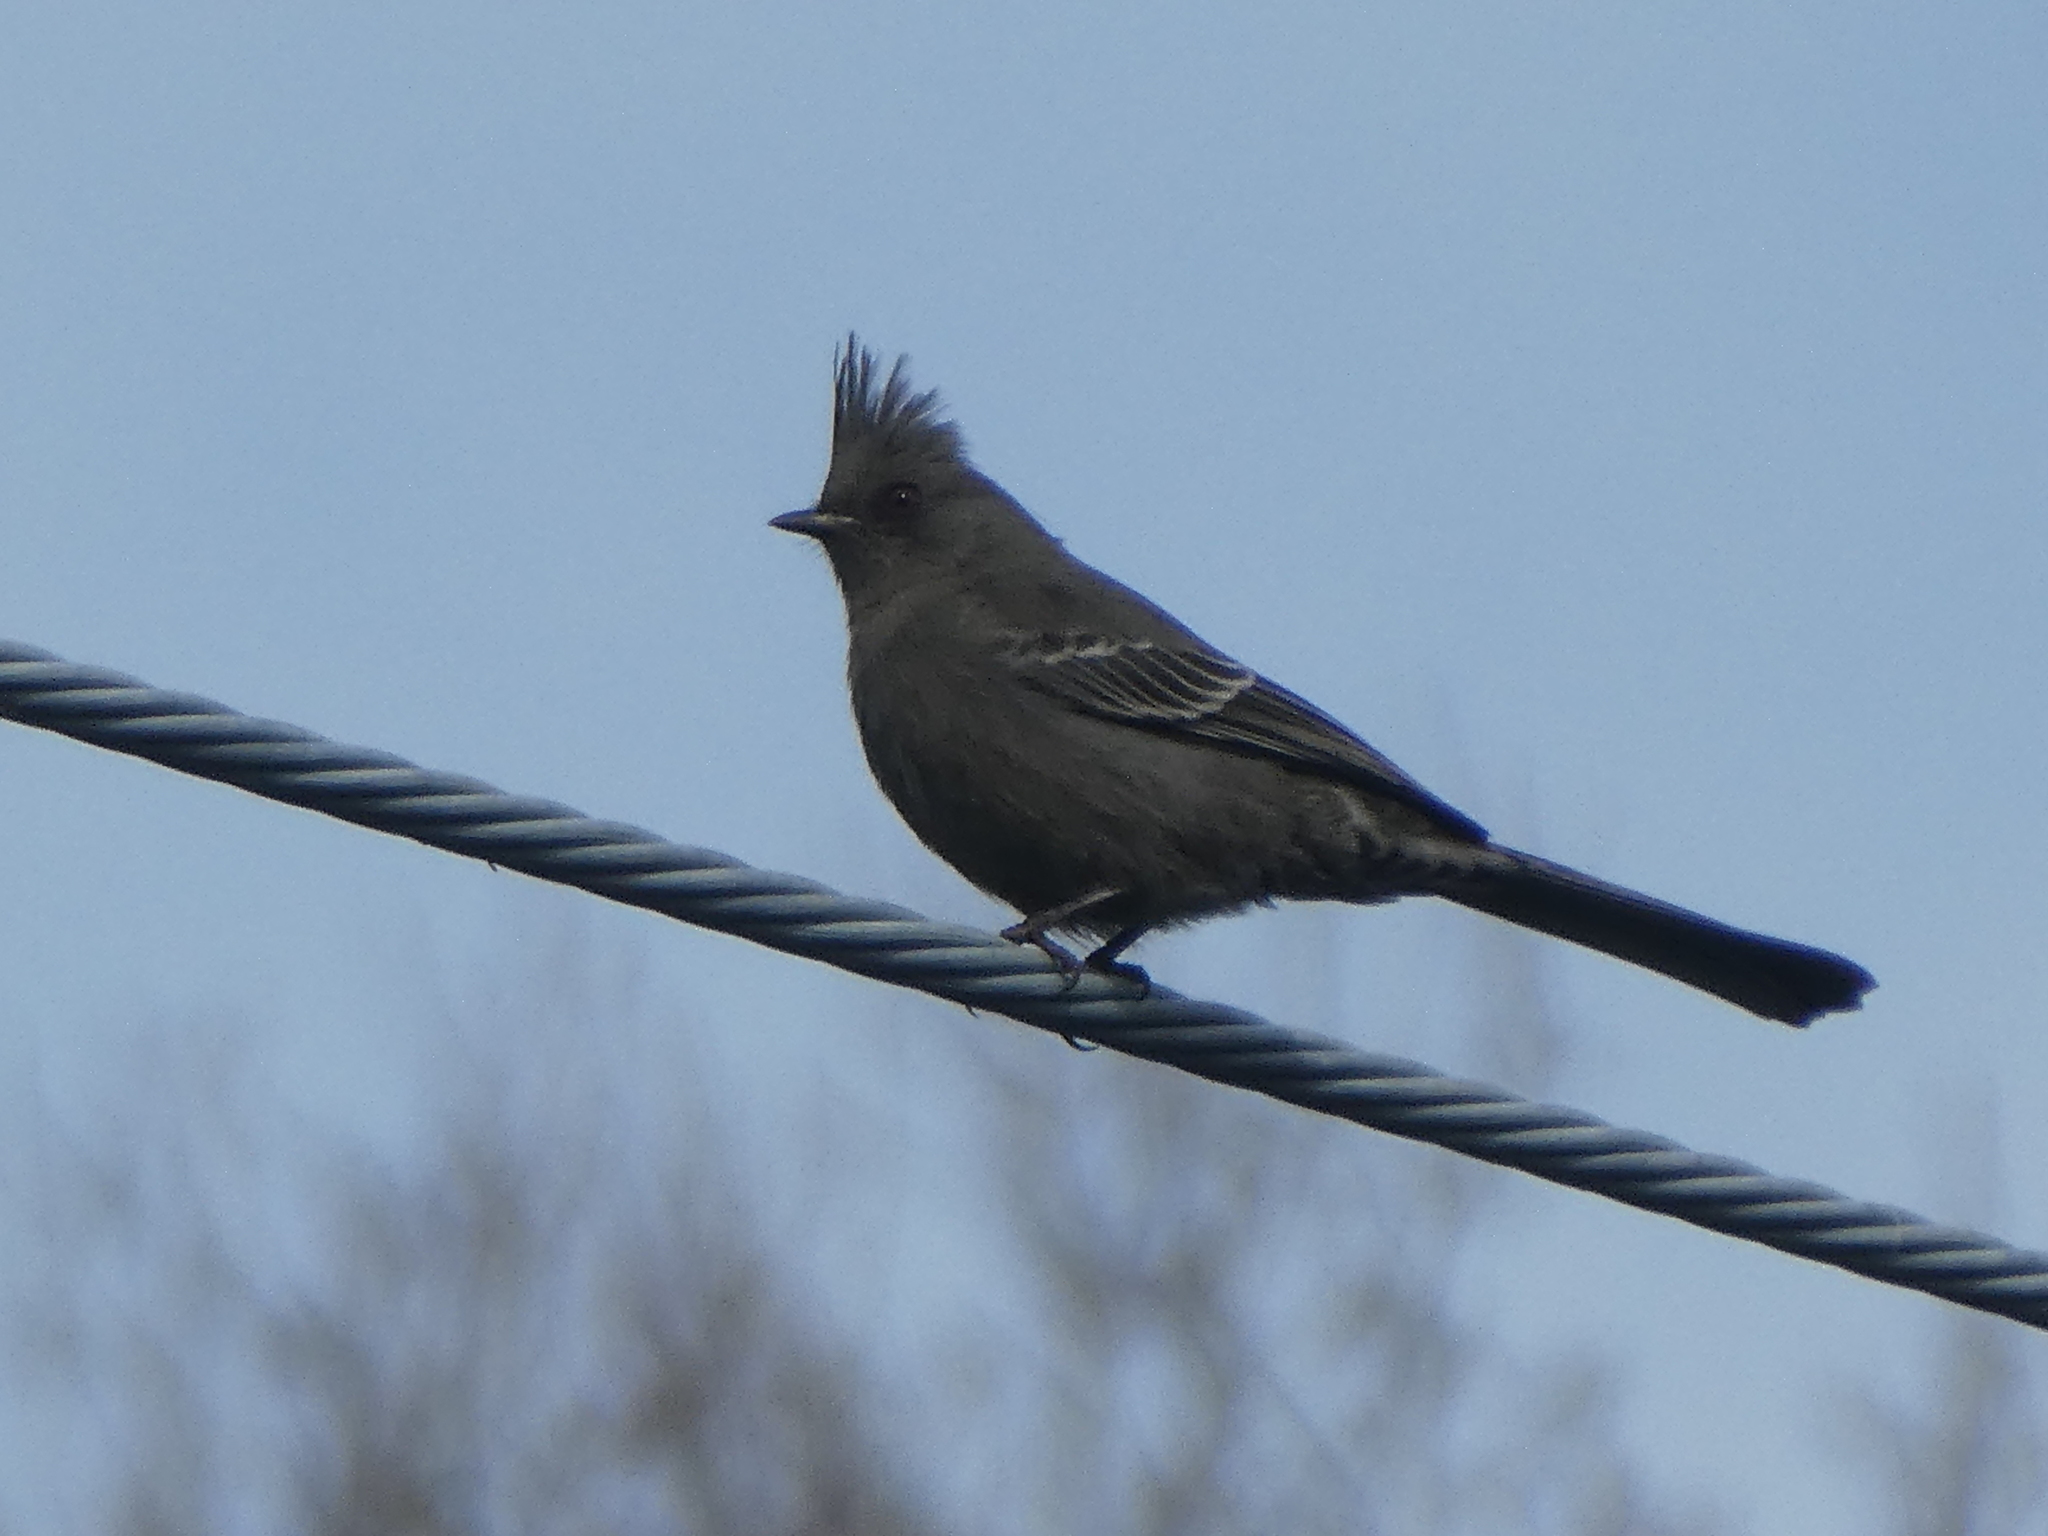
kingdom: Animalia
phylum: Chordata
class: Aves
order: Passeriformes
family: Ptilogonatidae
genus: Phainopepla
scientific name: Phainopepla nitens
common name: Phainopepla
